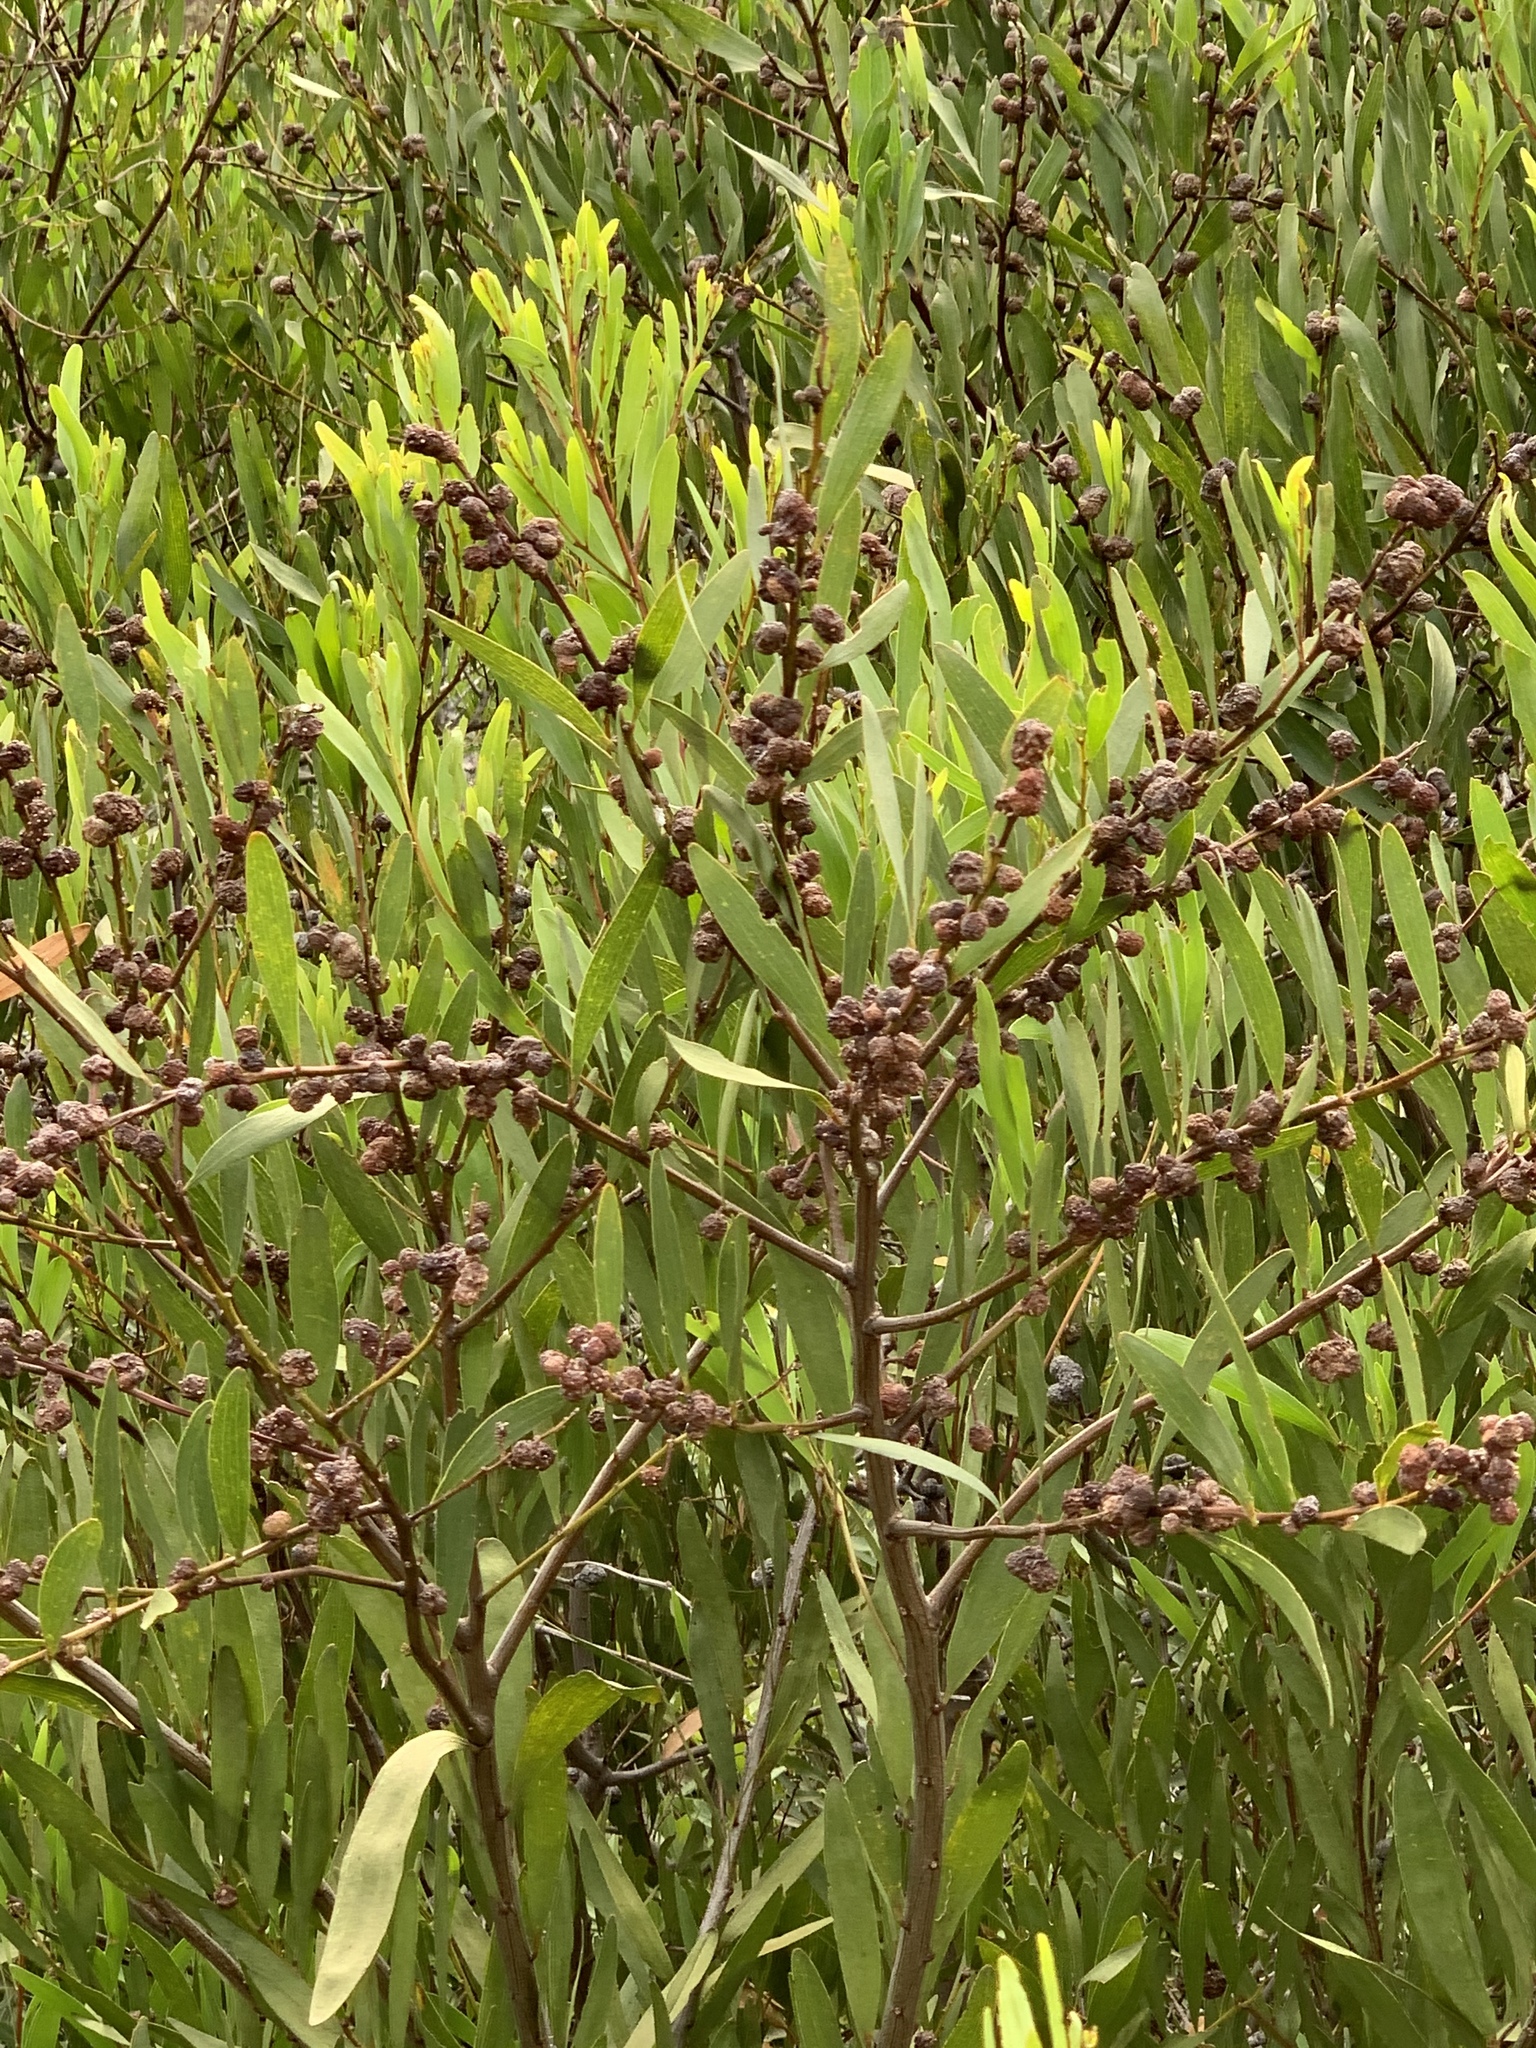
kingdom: Plantae
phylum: Tracheophyta
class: Magnoliopsida
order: Fabales
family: Fabaceae
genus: Acacia
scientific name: Acacia longifolia
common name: Sydney golden wattle
